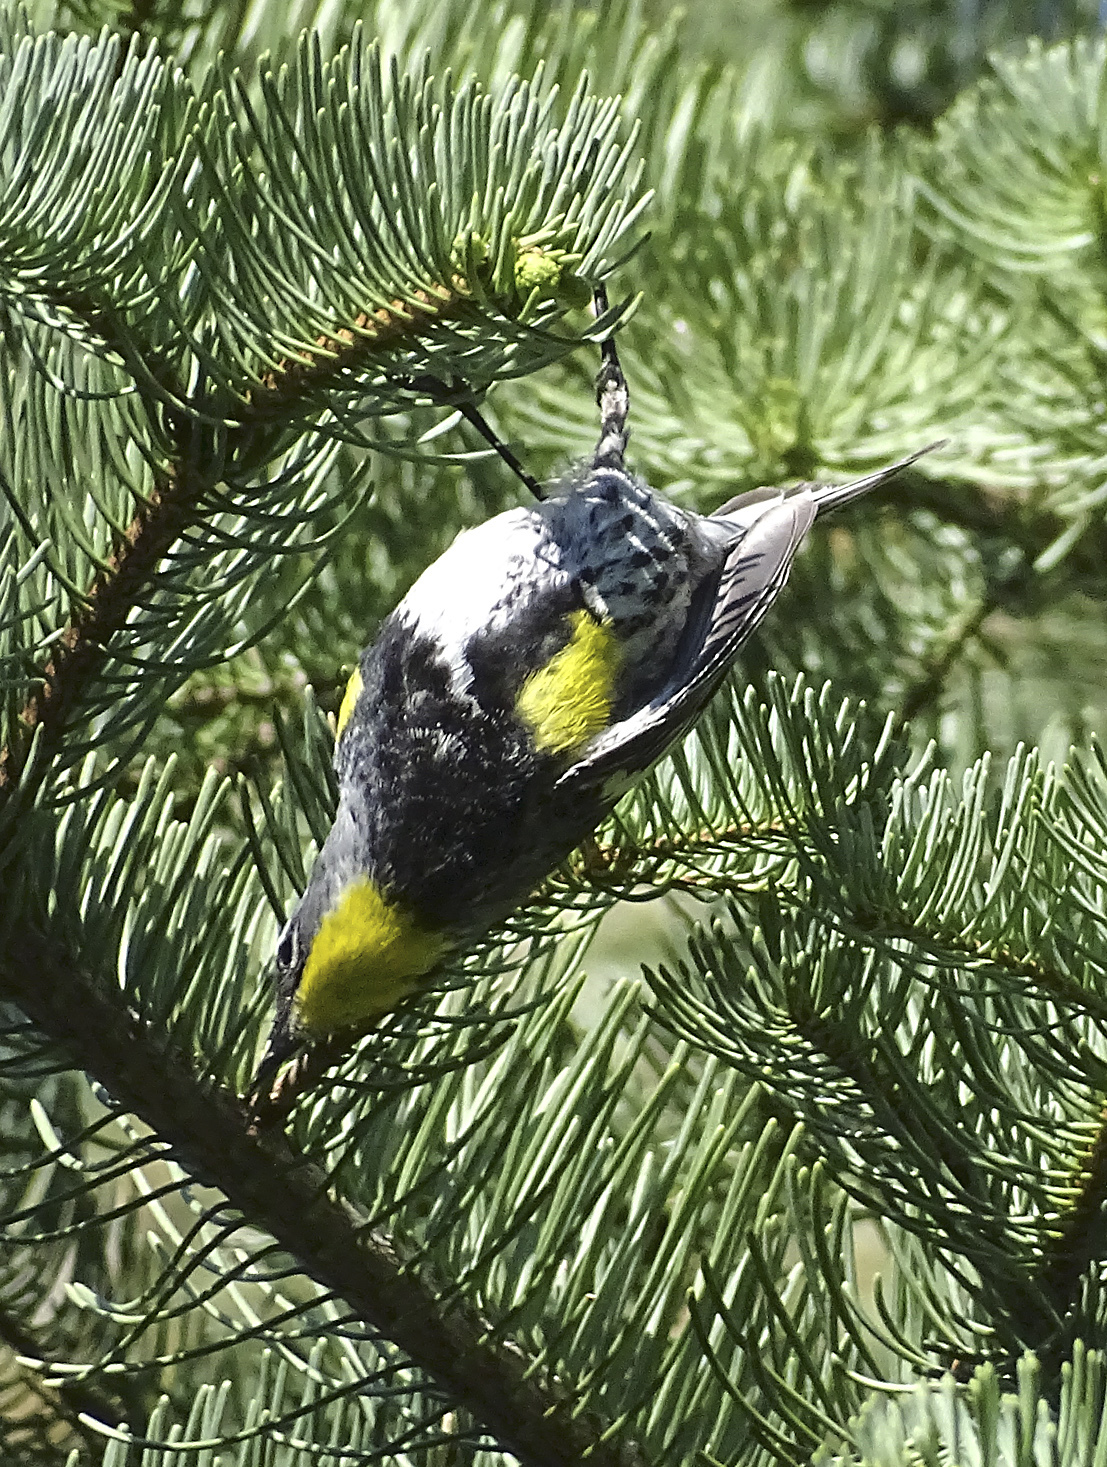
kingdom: Animalia
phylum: Chordata
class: Aves
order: Passeriformes
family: Parulidae
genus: Setophaga
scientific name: Setophaga coronata
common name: Myrtle warbler
